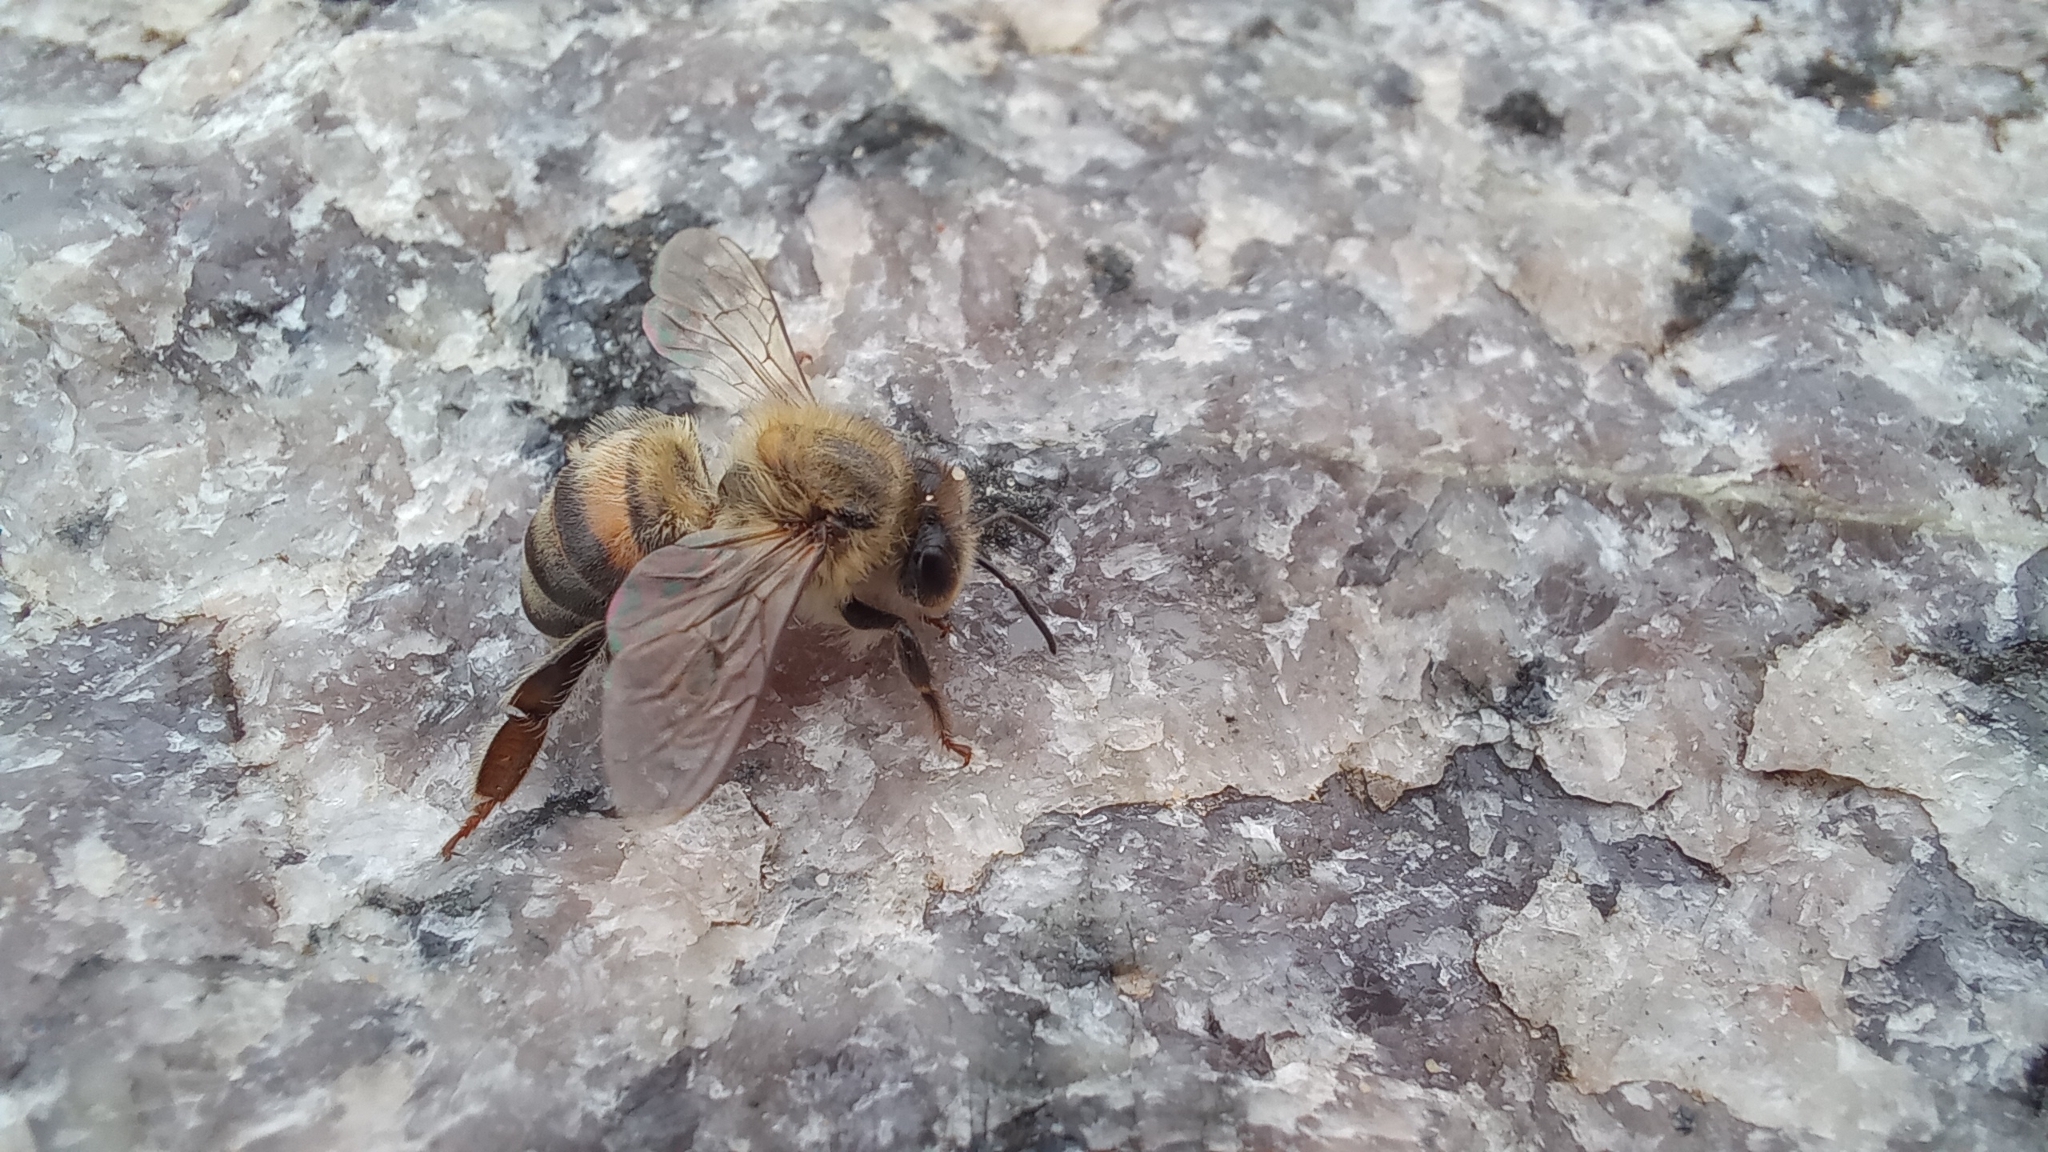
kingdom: Animalia
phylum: Arthropoda
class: Insecta
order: Hymenoptera
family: Apidae
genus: Apis
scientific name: Apis mellifera
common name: Honey bee
